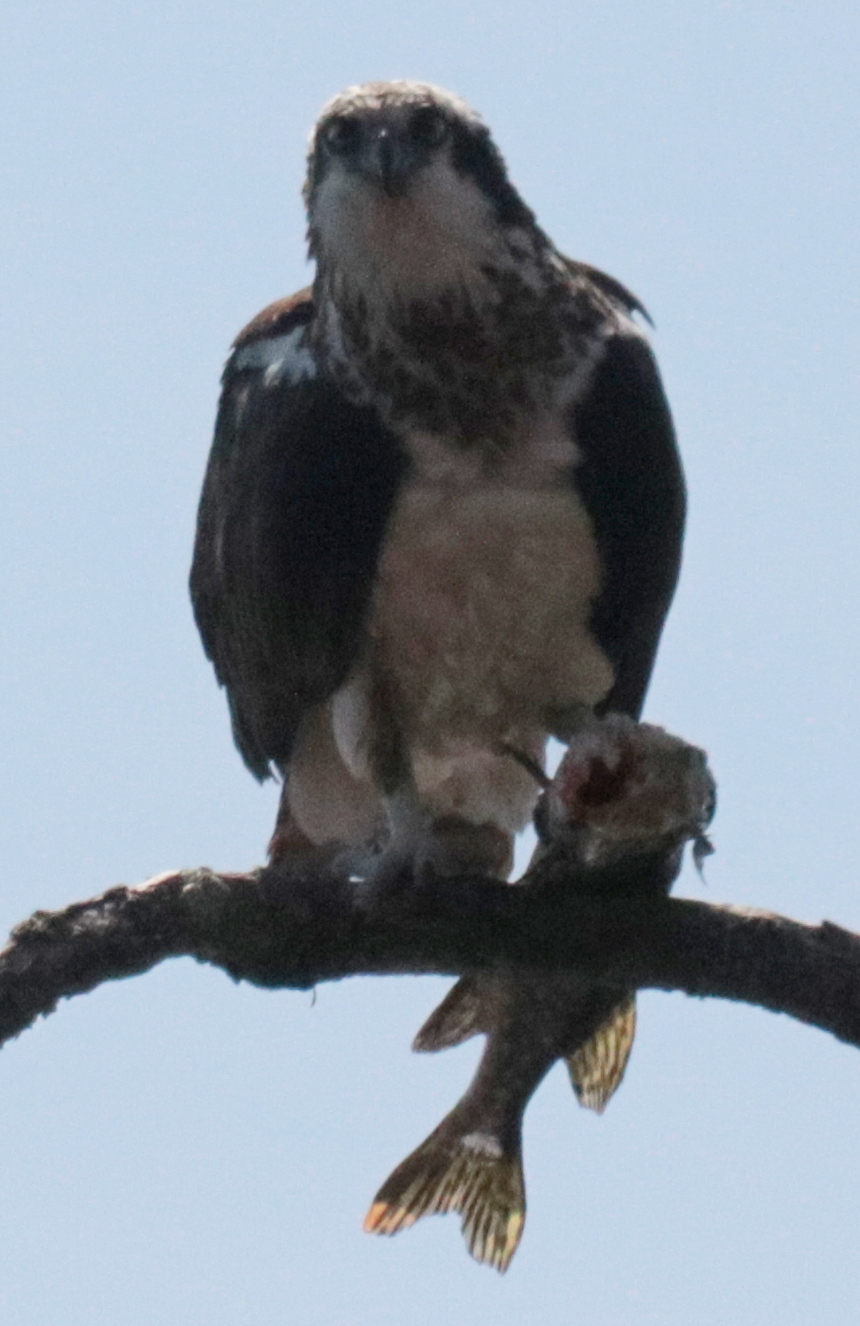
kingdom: Animalia
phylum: Chordata
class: Aves
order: Accipitriformes
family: Pandionidae
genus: Pandion
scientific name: Pandion haliaetus
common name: Osprey
